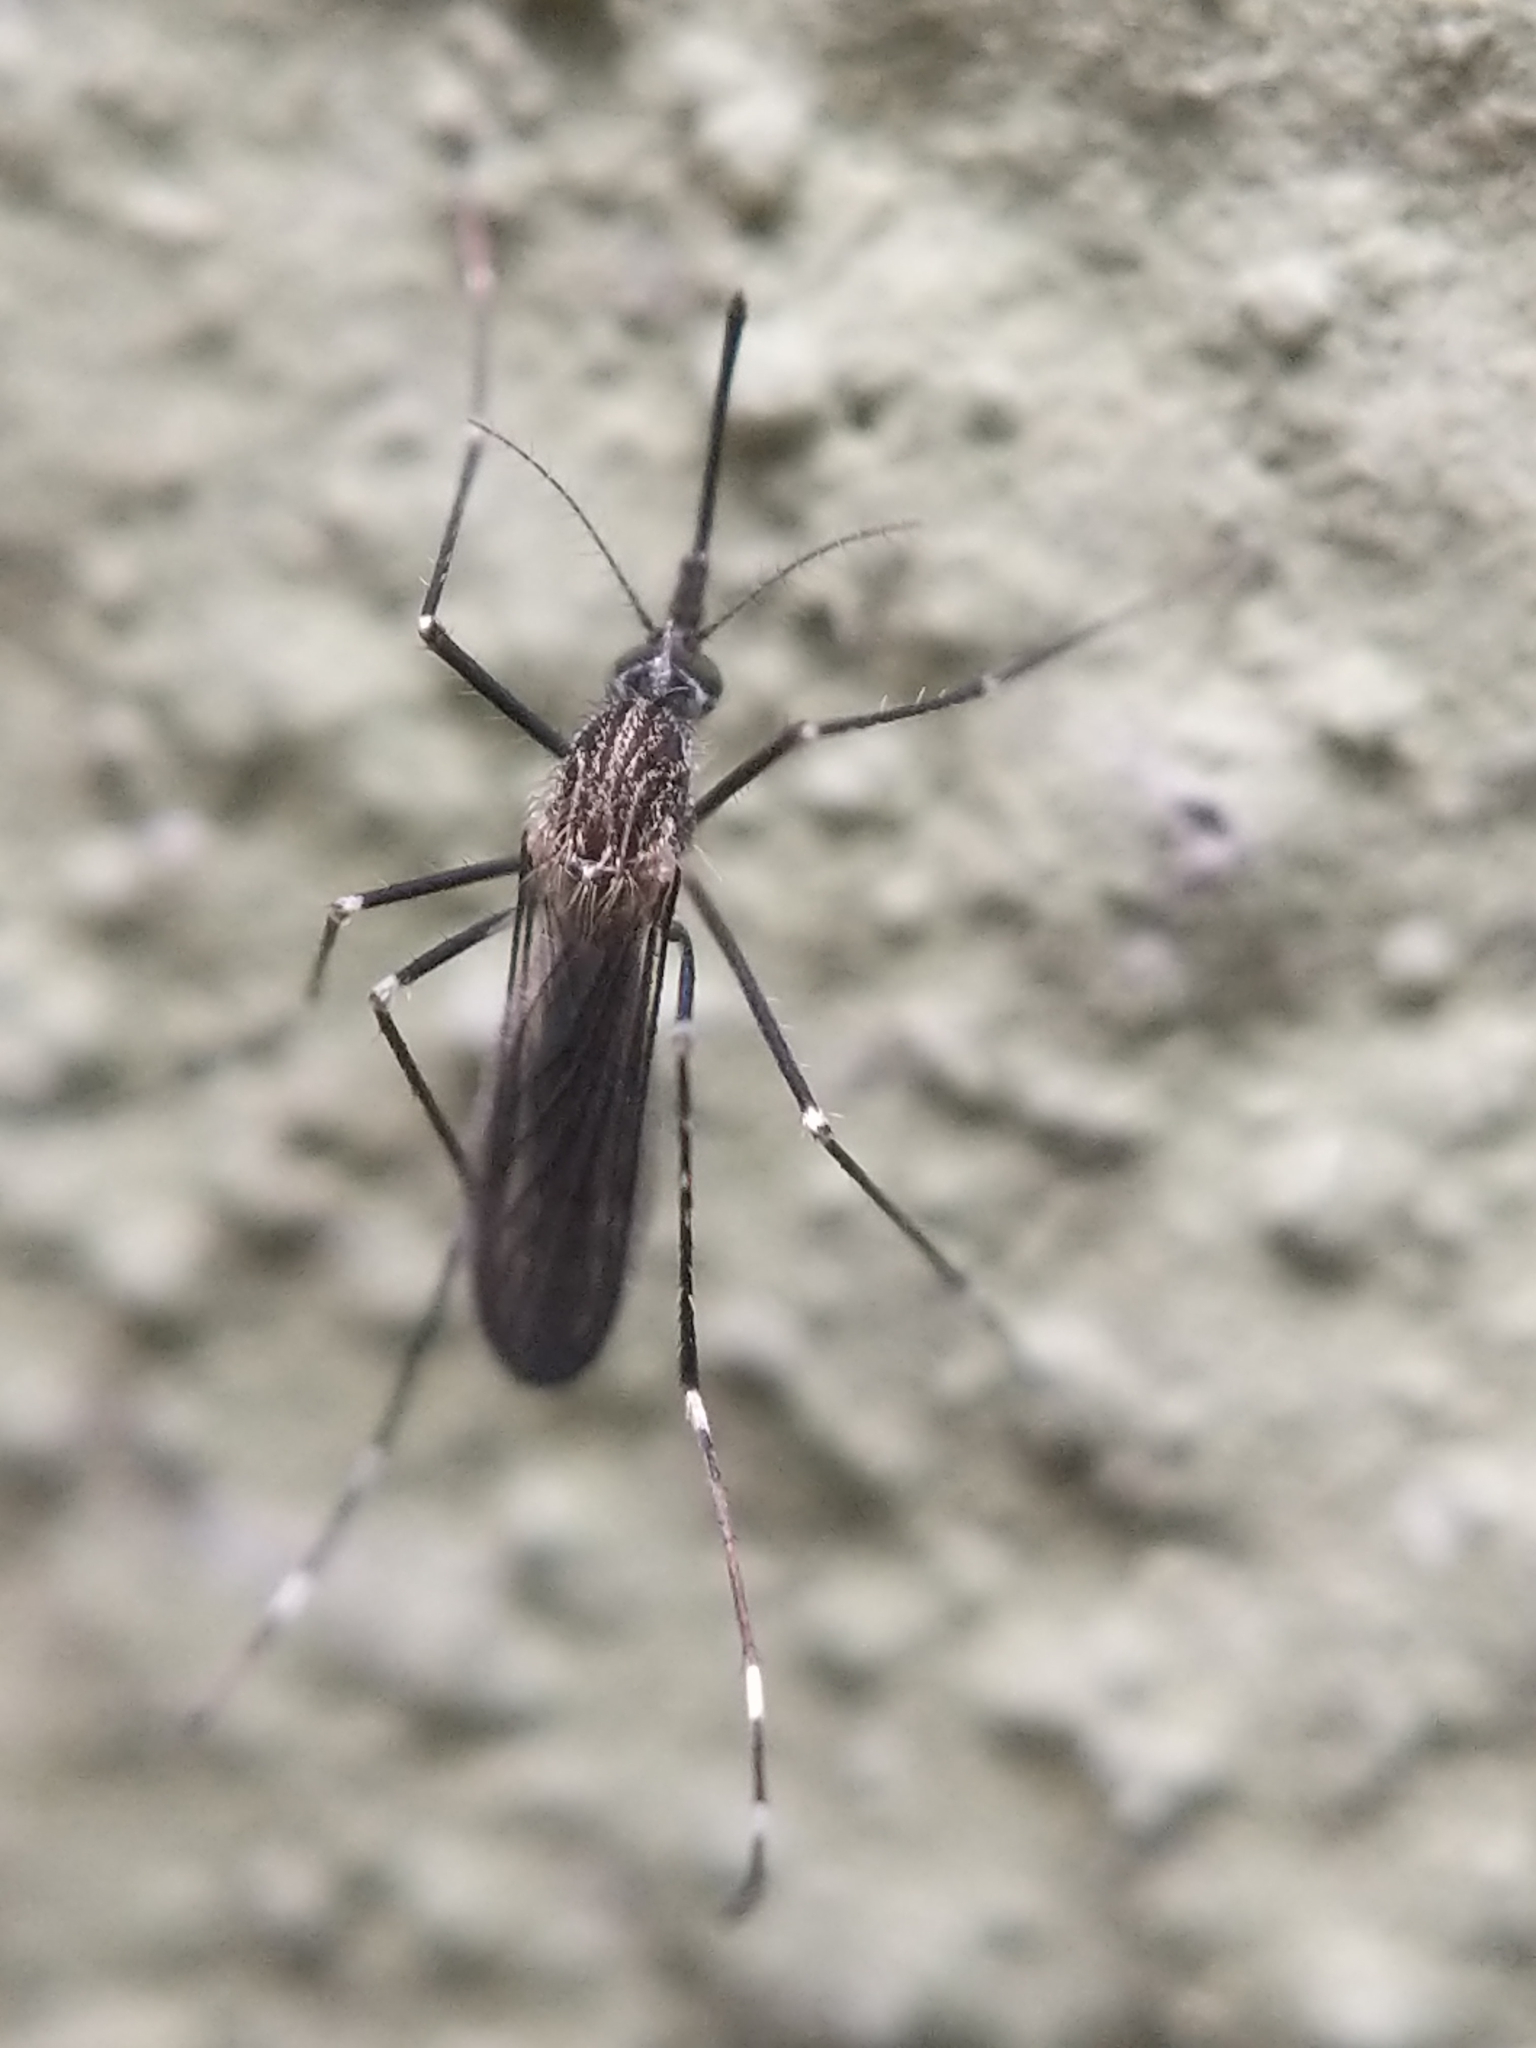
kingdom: Animalia
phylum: Arthropoda
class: Insecta
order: Diptera
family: Culicidae
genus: Aedes
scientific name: Aedes japonicus
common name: Asian bush mosquito
